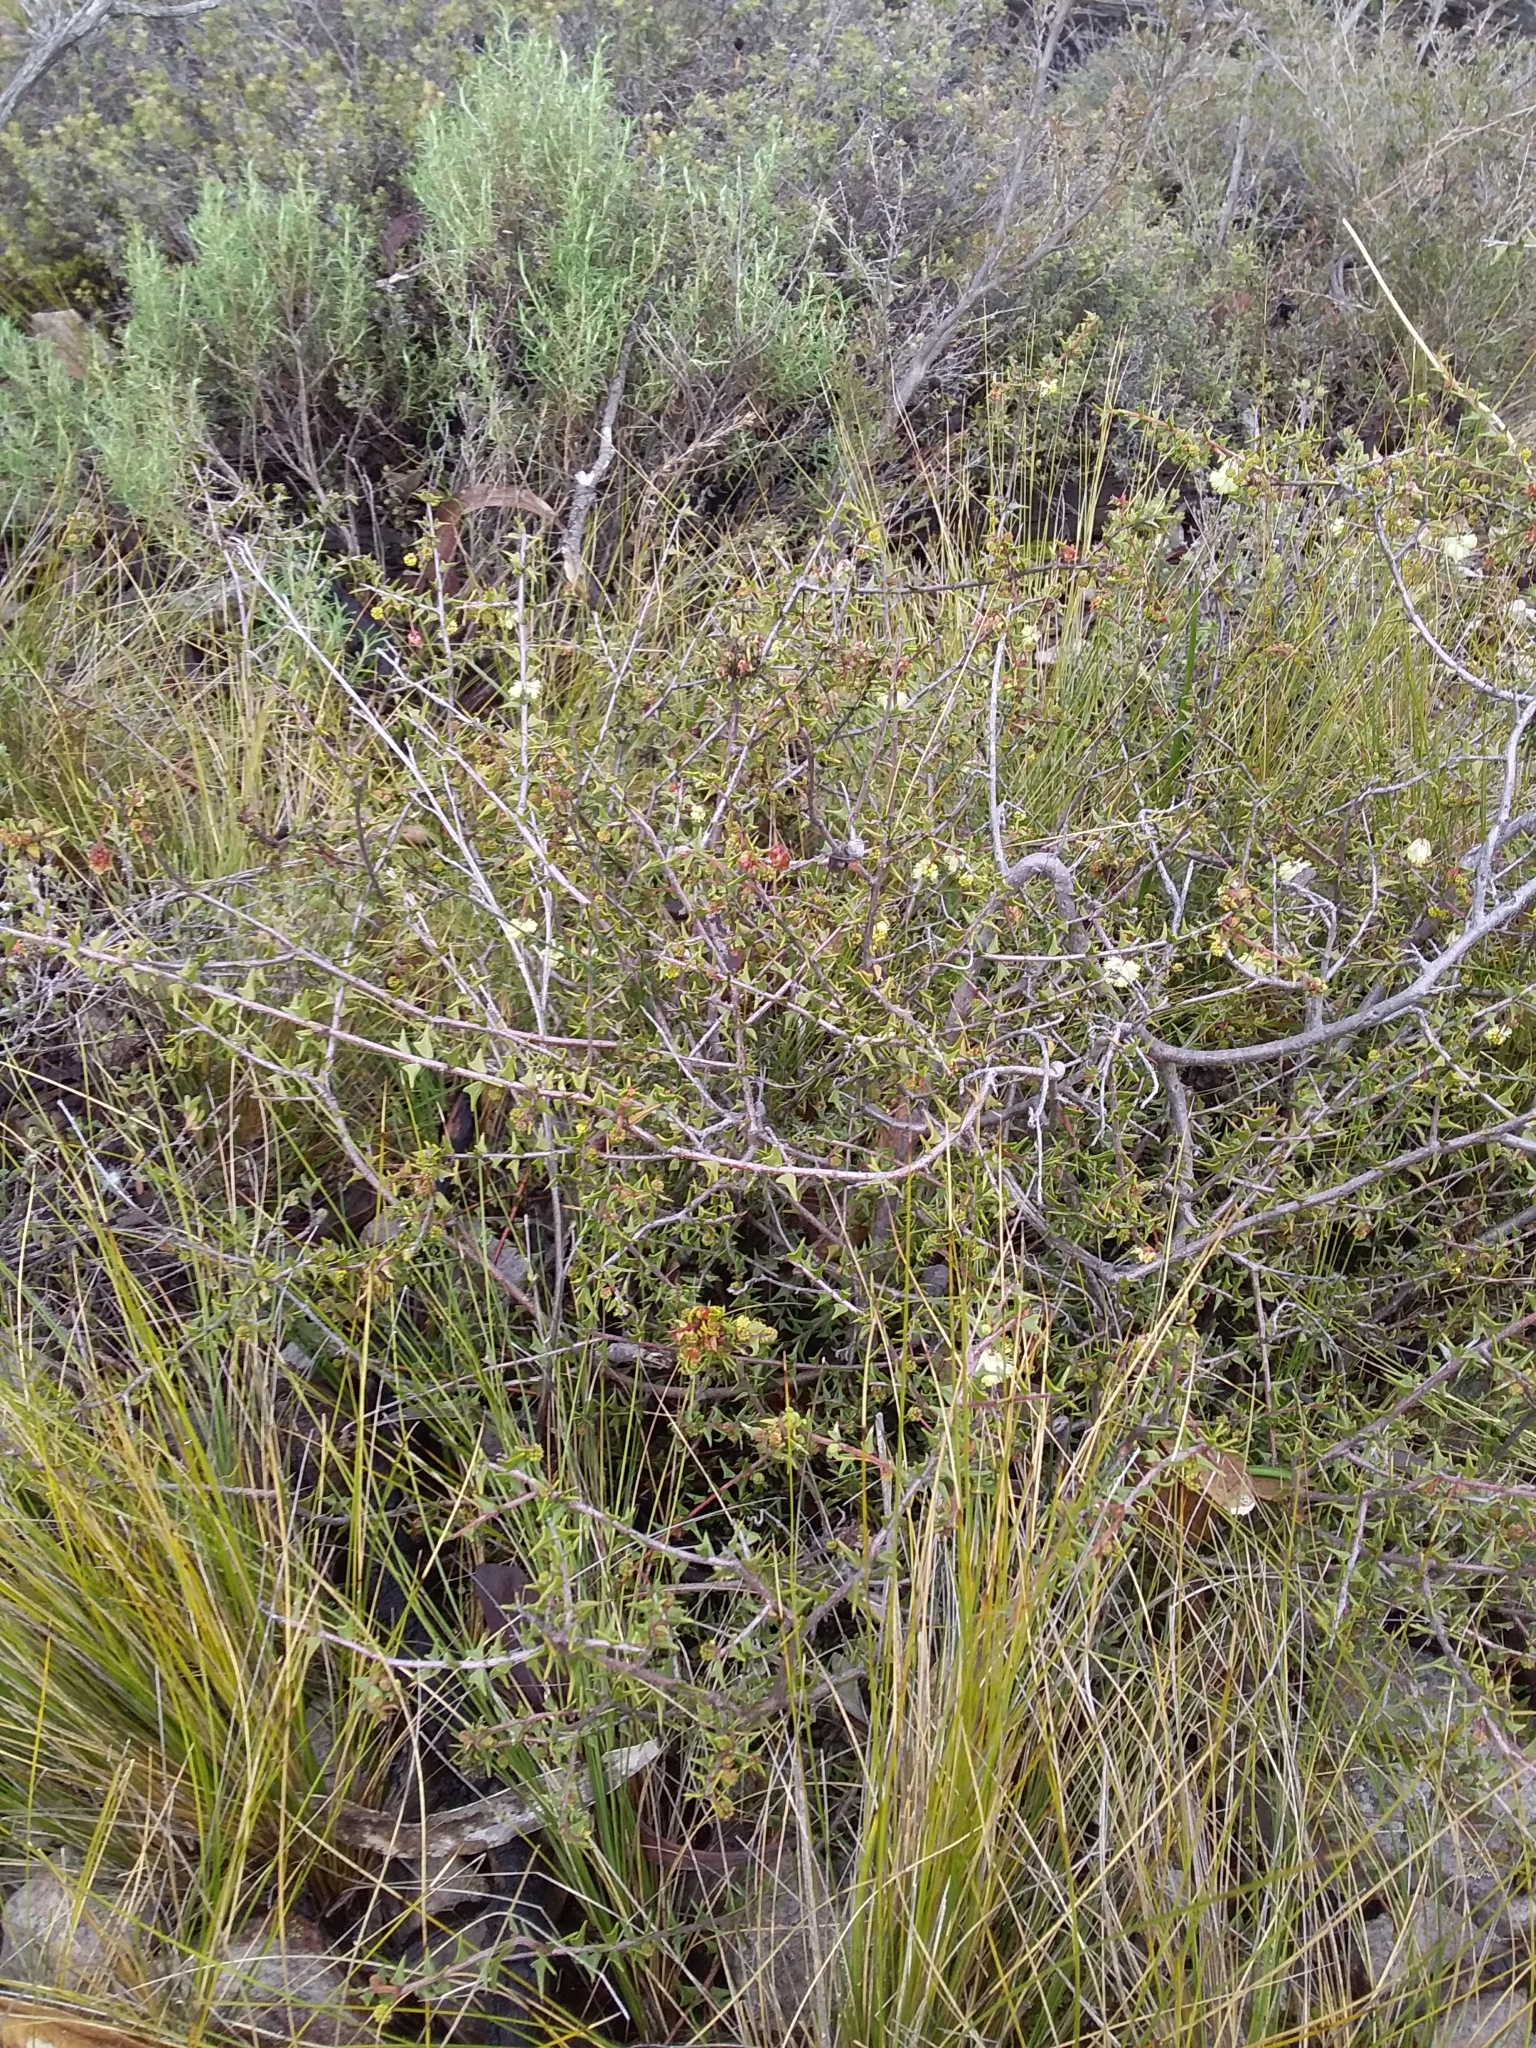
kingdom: Plantae
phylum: Tracheophyta
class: Magnoliopsida
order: Fabales
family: Fabaceae
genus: Acacia
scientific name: Acacia gunnii
